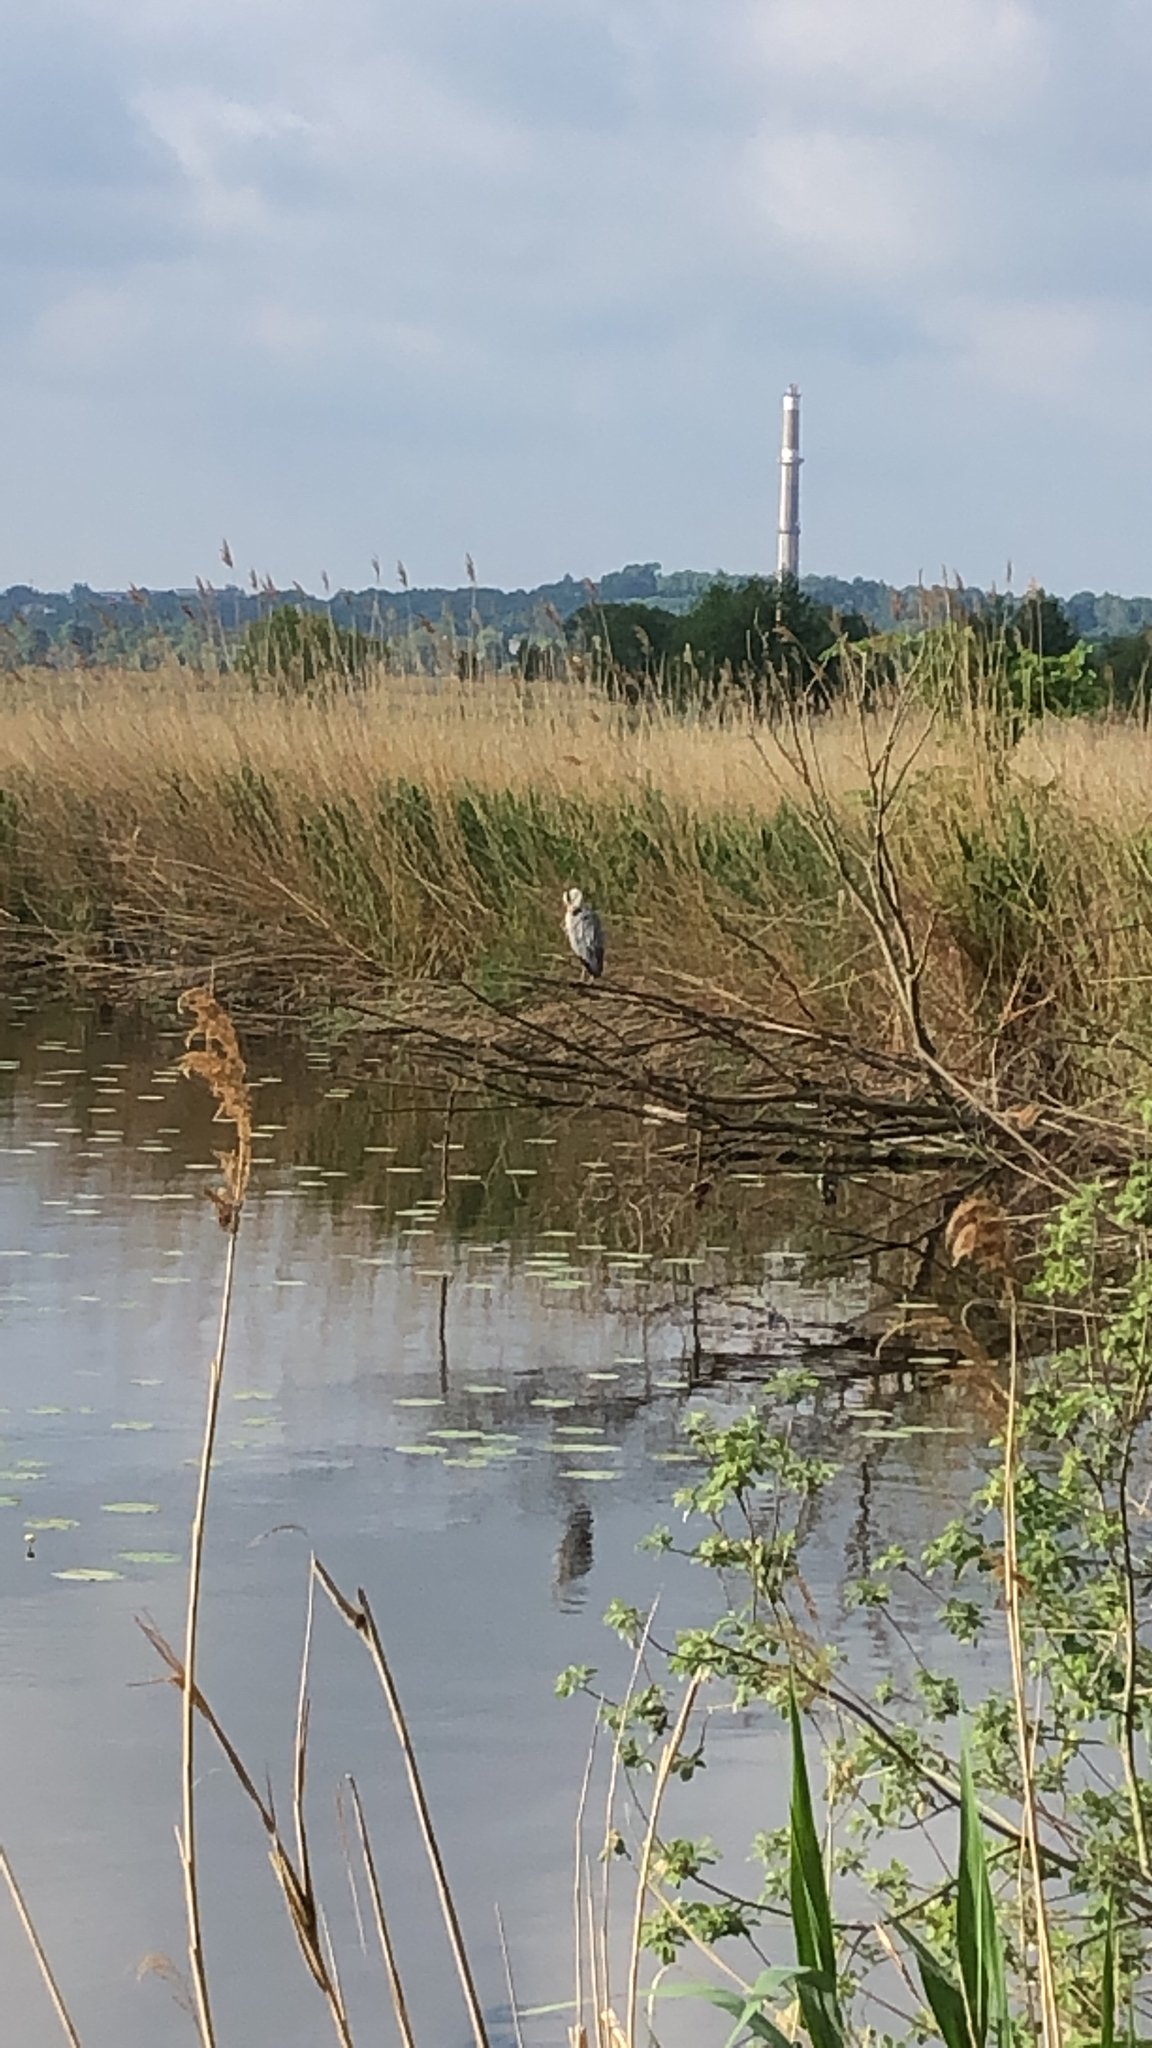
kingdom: Animalia
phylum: Chordata
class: Aves
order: Pelecaniformes
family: Ardeidae
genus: Ardea
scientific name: Ardea cinerea
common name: Grey heron
